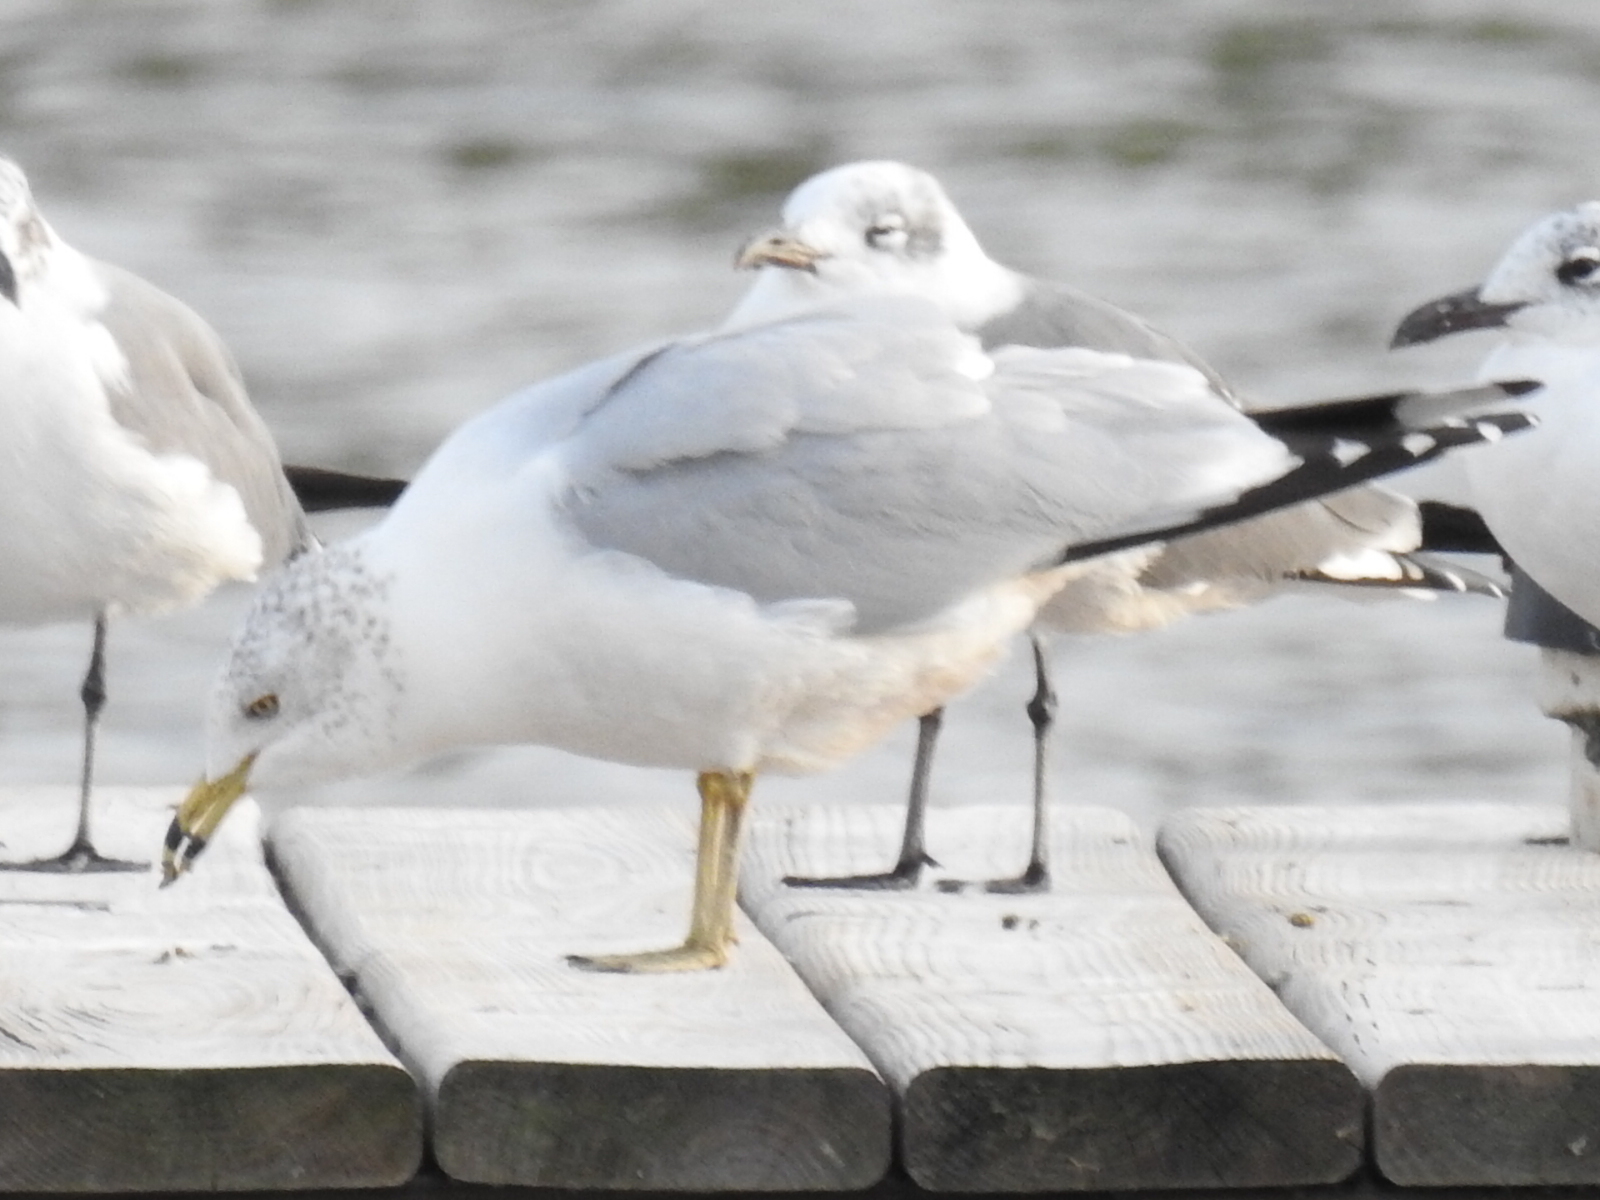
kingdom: Animalia
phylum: Chordata
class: Aves
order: Charadriiformes
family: Laridae
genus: Larus
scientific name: Larus delawarensis
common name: Ring-billed gull
